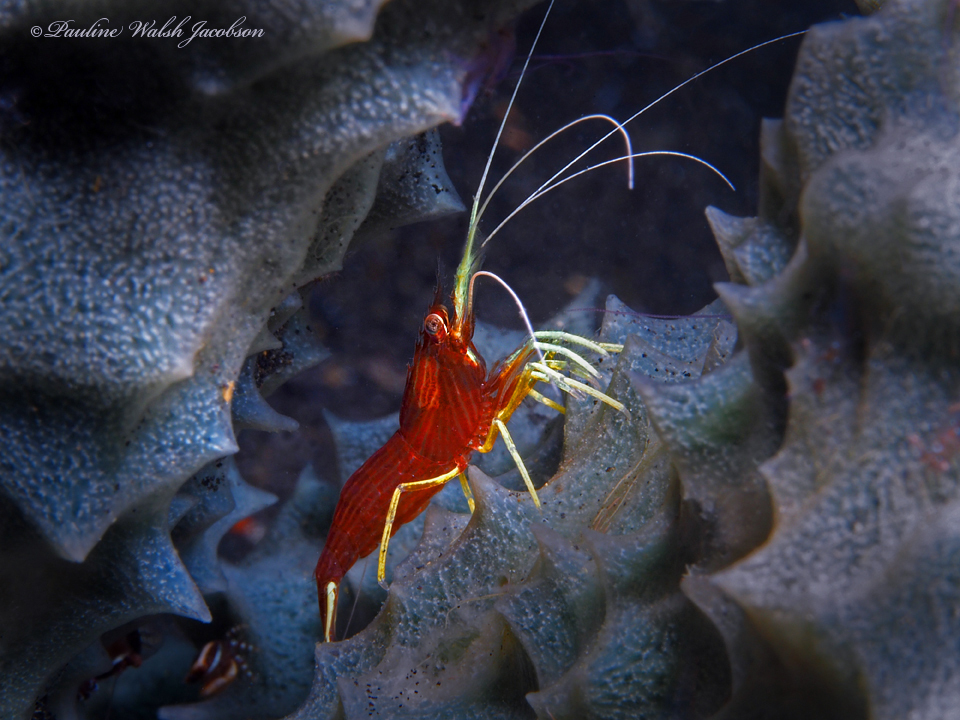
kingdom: Animalia
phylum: Arthropoda
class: Malacostraca
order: Decapoda
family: Lysmatidae
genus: Lysmatella
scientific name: Lysmatella prima
